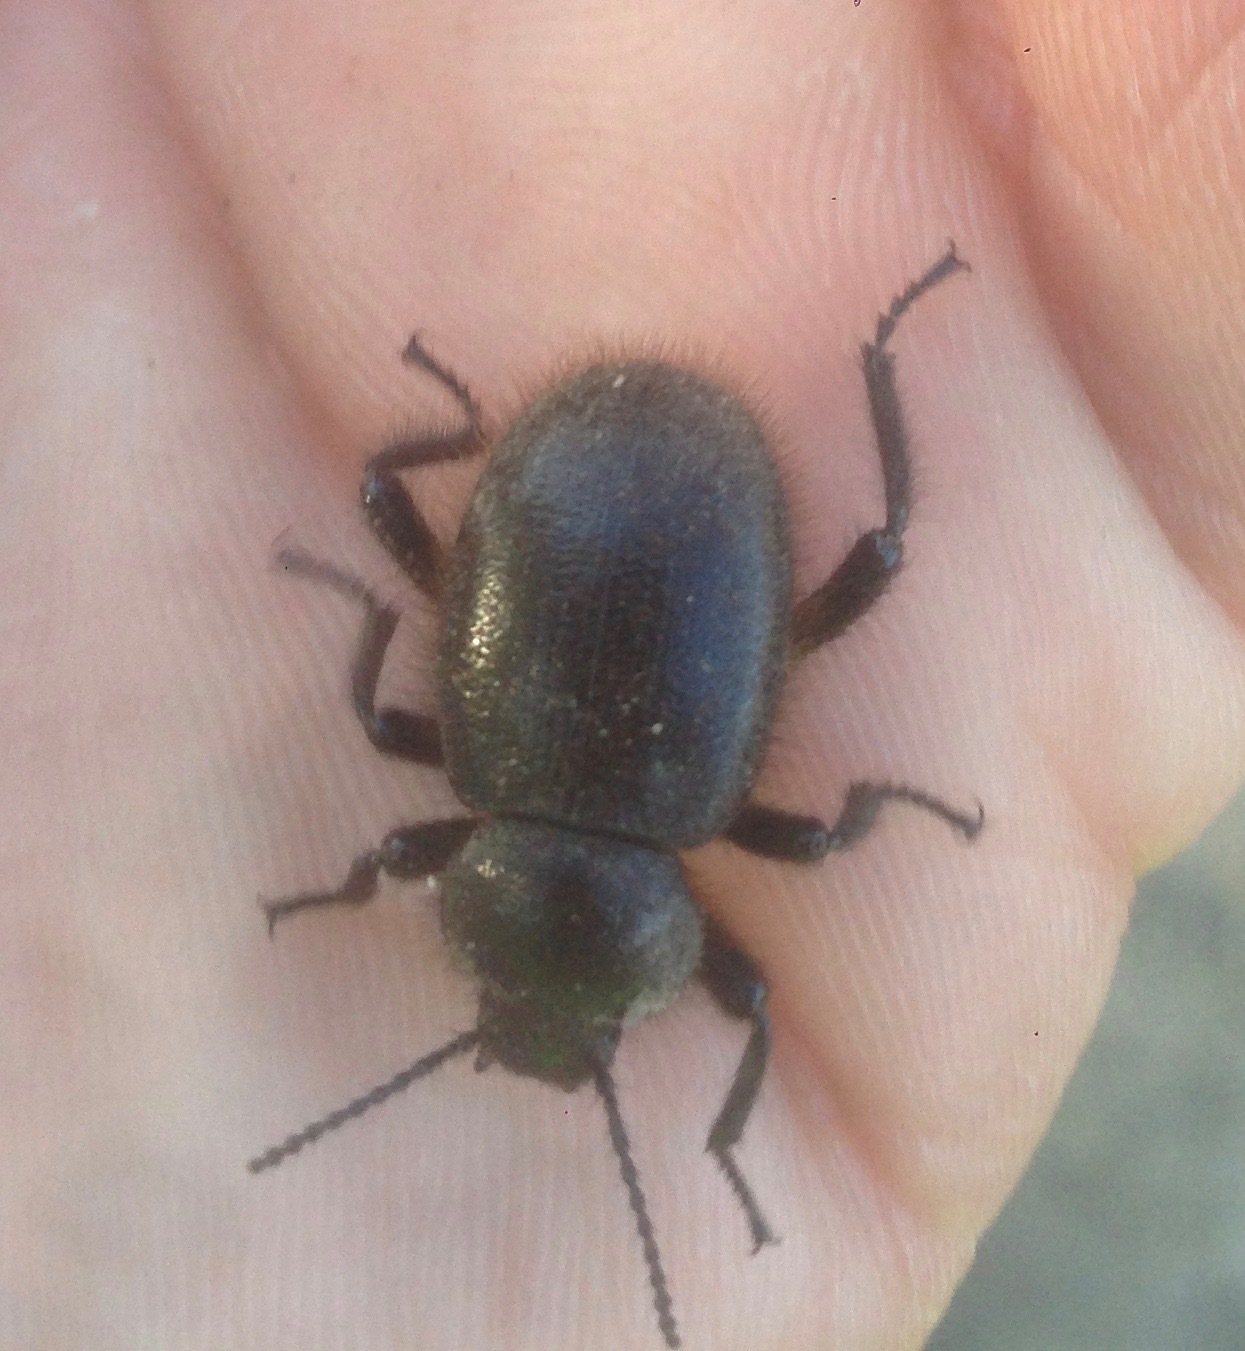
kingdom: Animalia
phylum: Arthropoda
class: Insecta
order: Coleoptera
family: Tenebrionidae
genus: Eleodes
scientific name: Eleodes osculans
